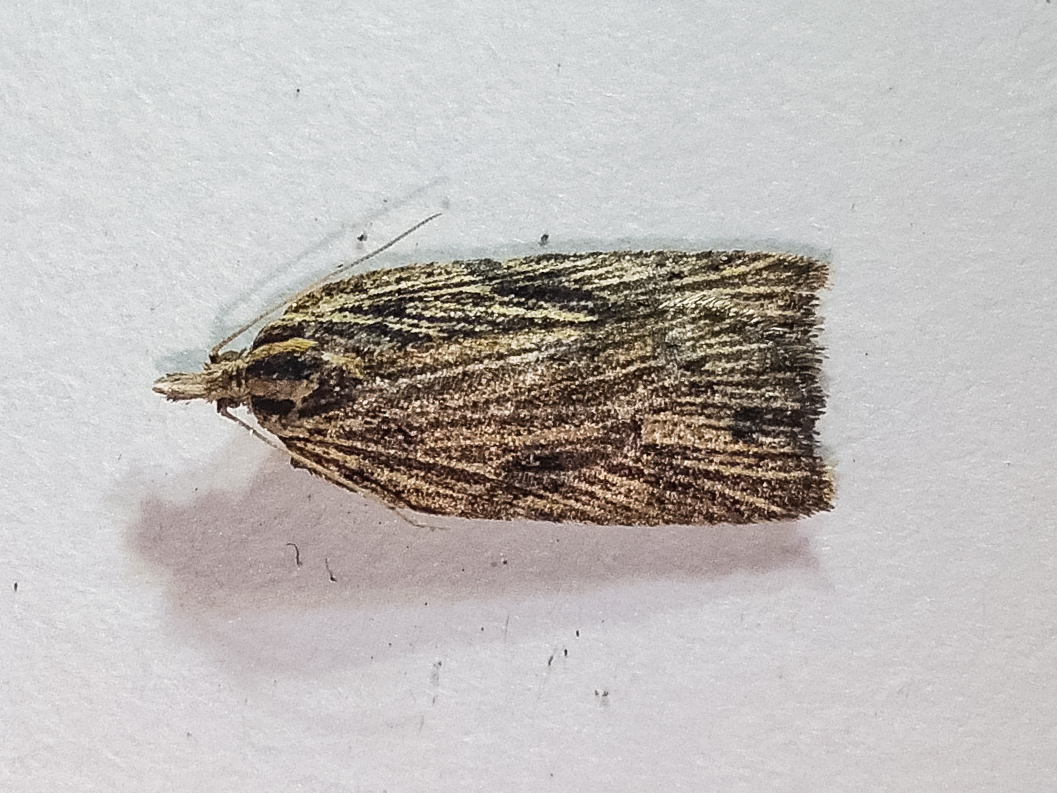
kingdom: Animalia
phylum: Arthropoda
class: Insecta
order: Lepidoptera
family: Tortricidae
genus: Planotortrix
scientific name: Planotortrix notophaea
